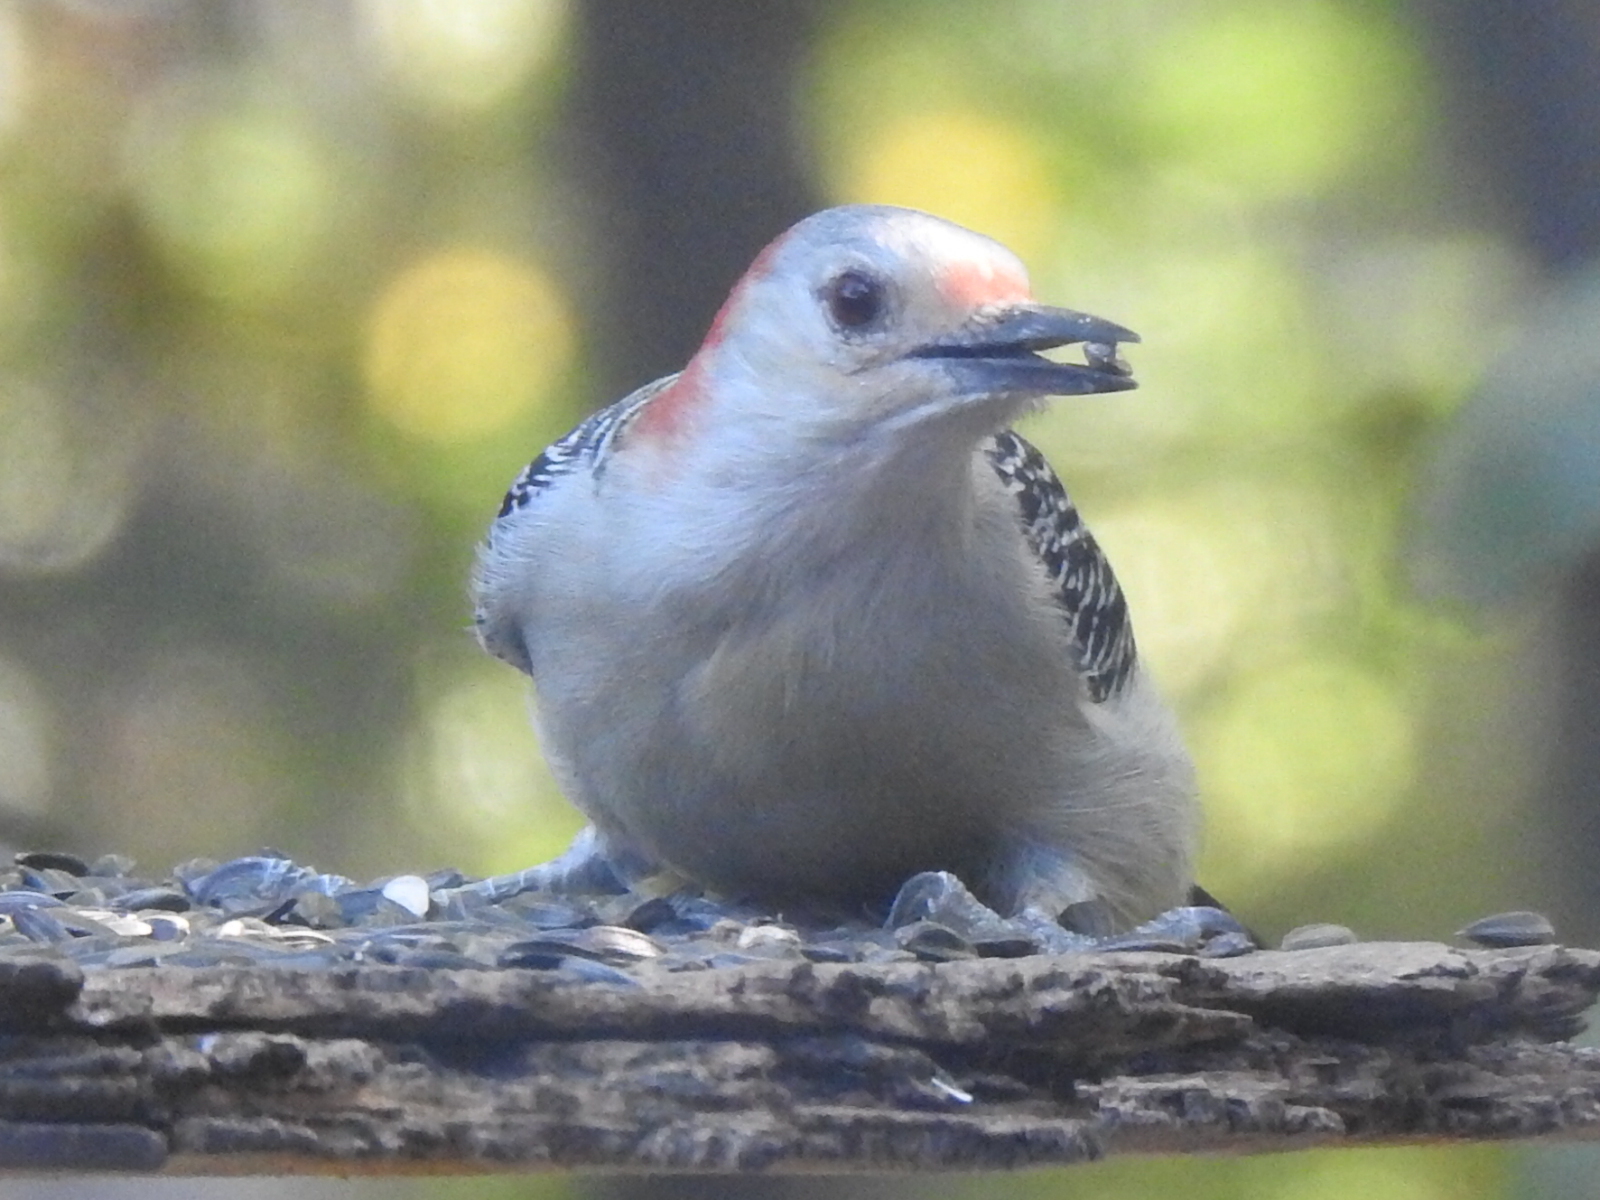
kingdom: Animalia
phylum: Chordata
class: Aves
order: Piciformes
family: Picidae
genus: Melanerpes
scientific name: Melanerpes carolinus
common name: Red-bellied woodpecker
